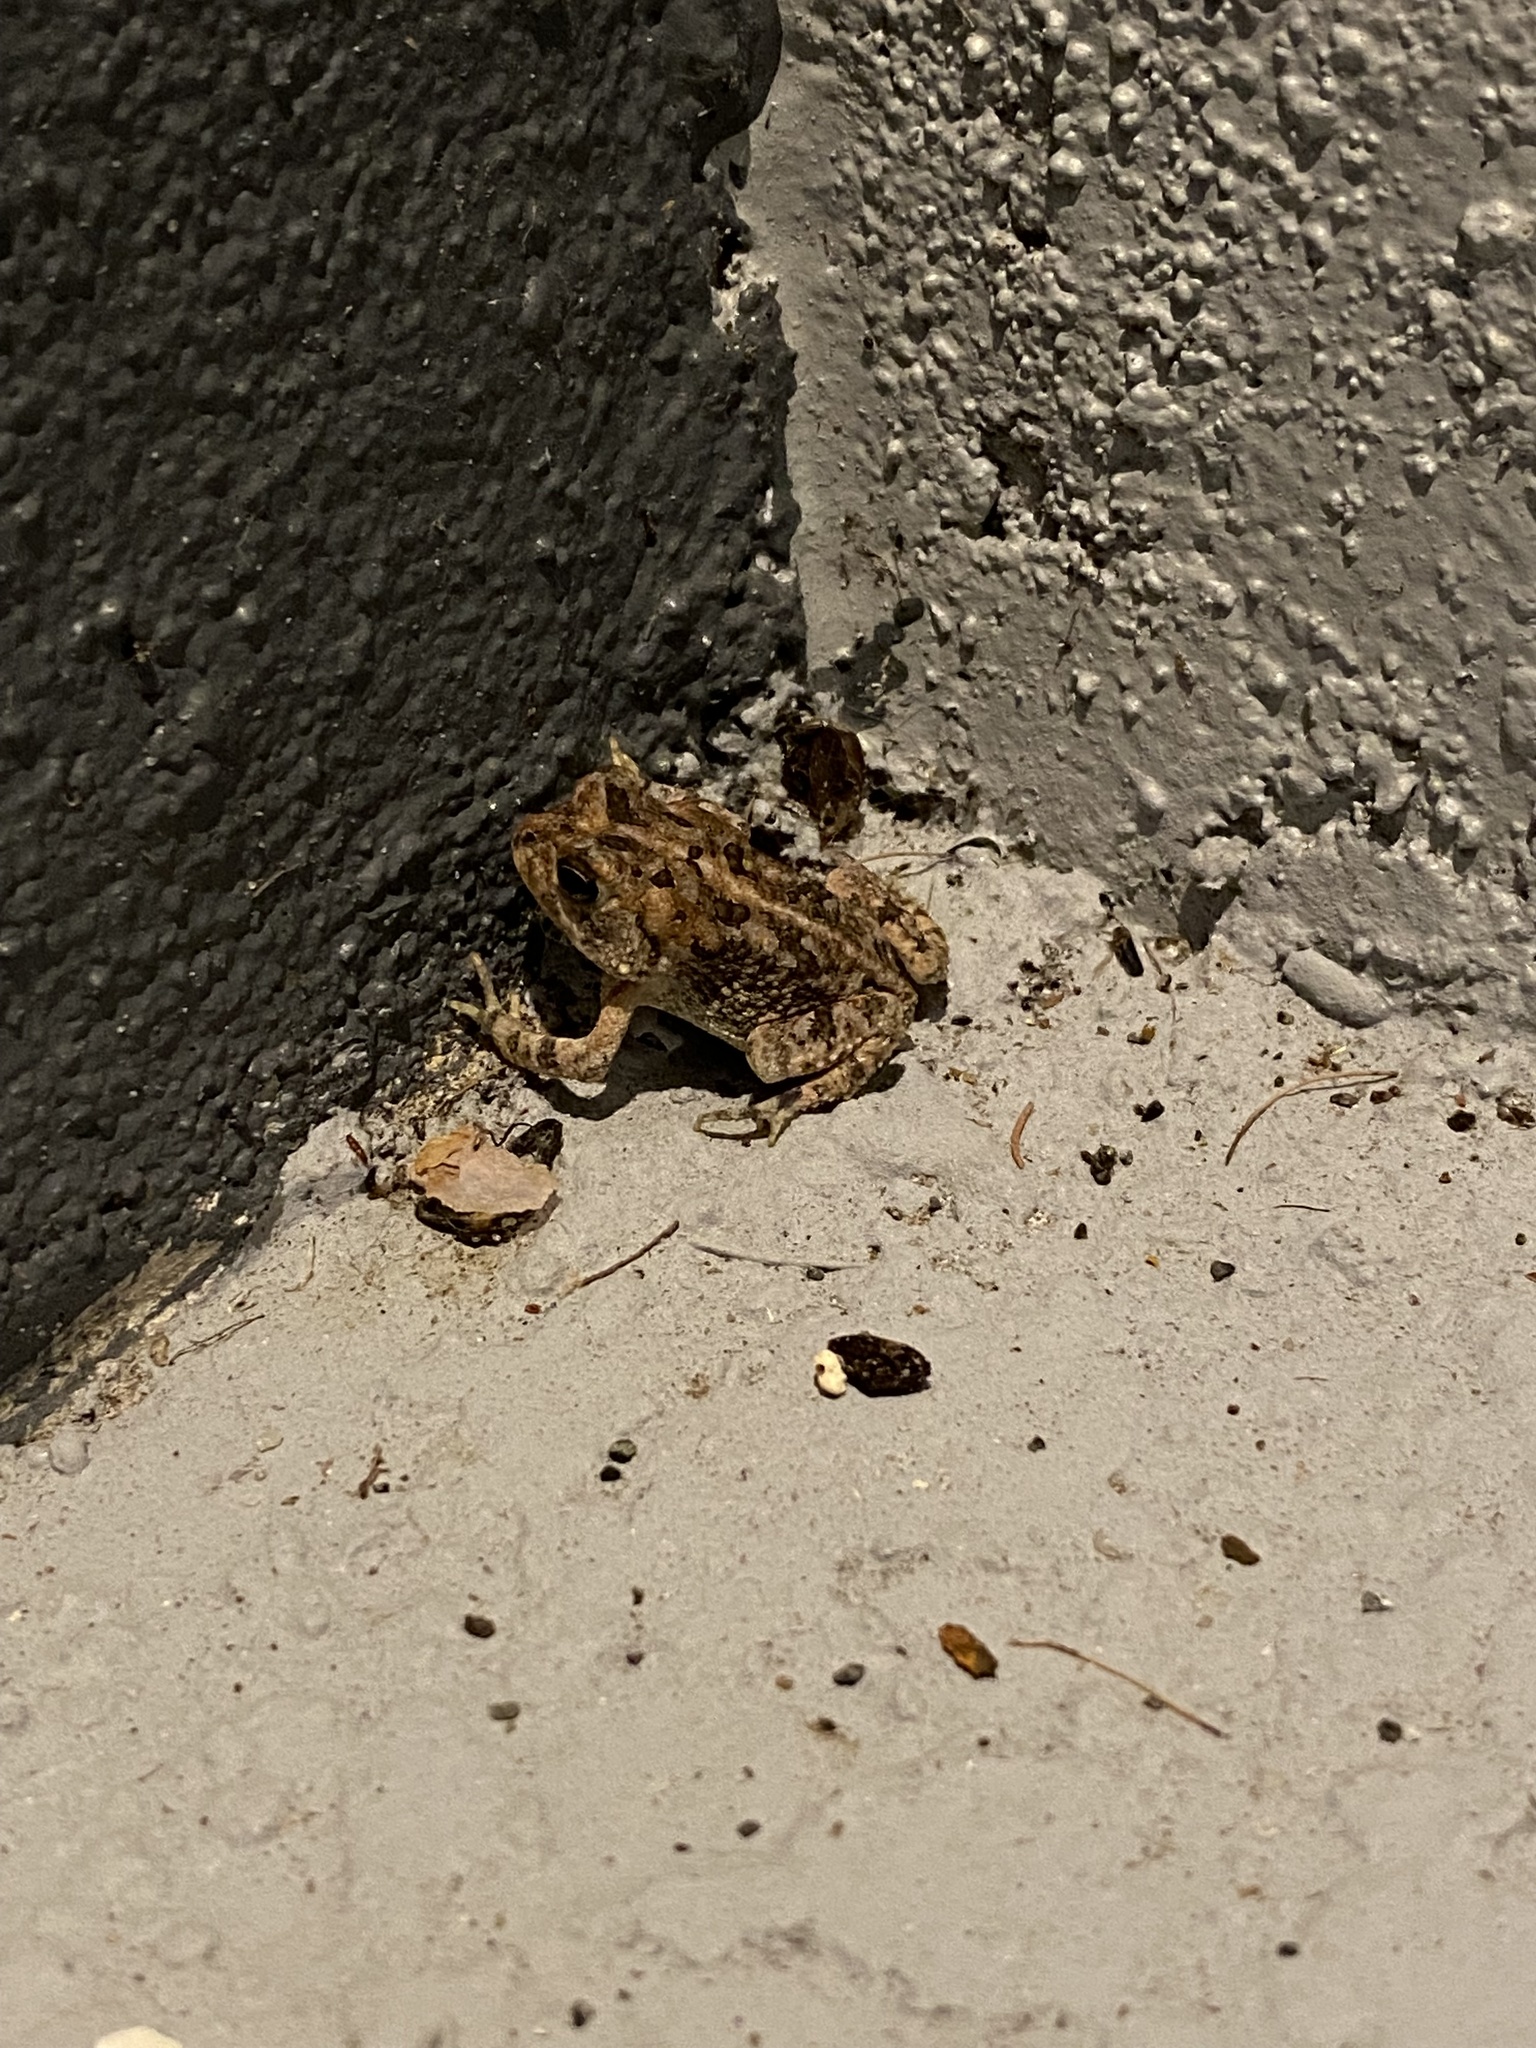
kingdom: Animalia
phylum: Chordata
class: Amphibia
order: Anura
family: Bufonidae
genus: Anaxyrus
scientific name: Anaxyrus terrestris
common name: Southern toad
